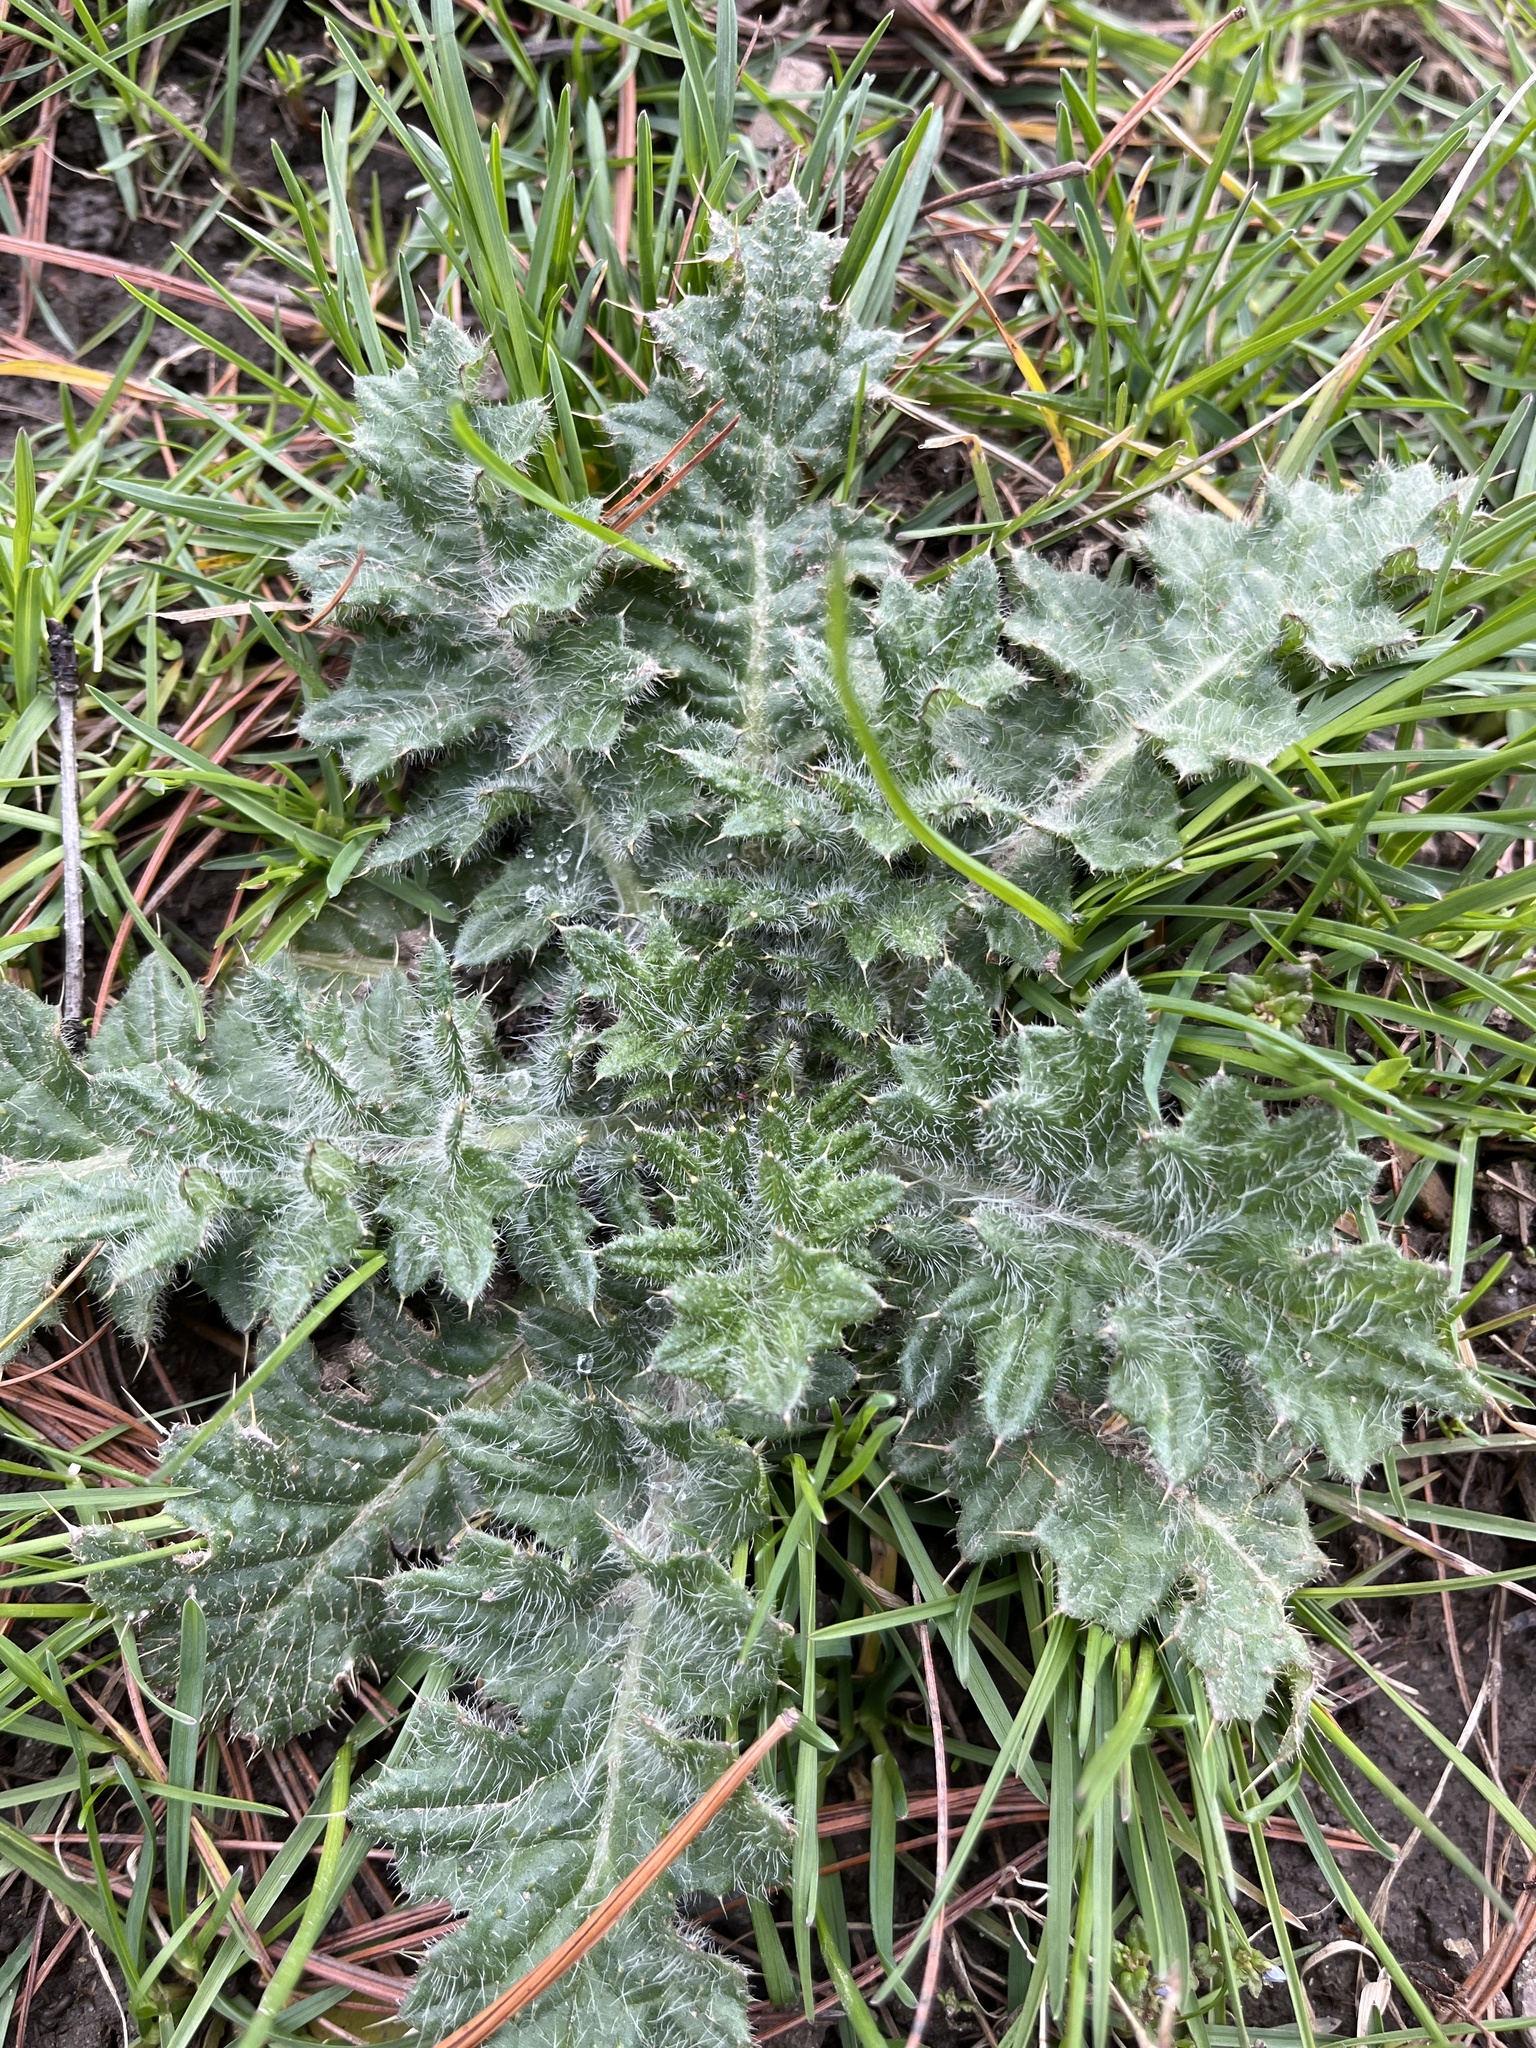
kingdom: Plantae
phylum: Tracheophyta
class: Magnoliopsida
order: Asterales
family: Asteraceae
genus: Cirsium
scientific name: Cirsium vulgare
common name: Bull thistle
